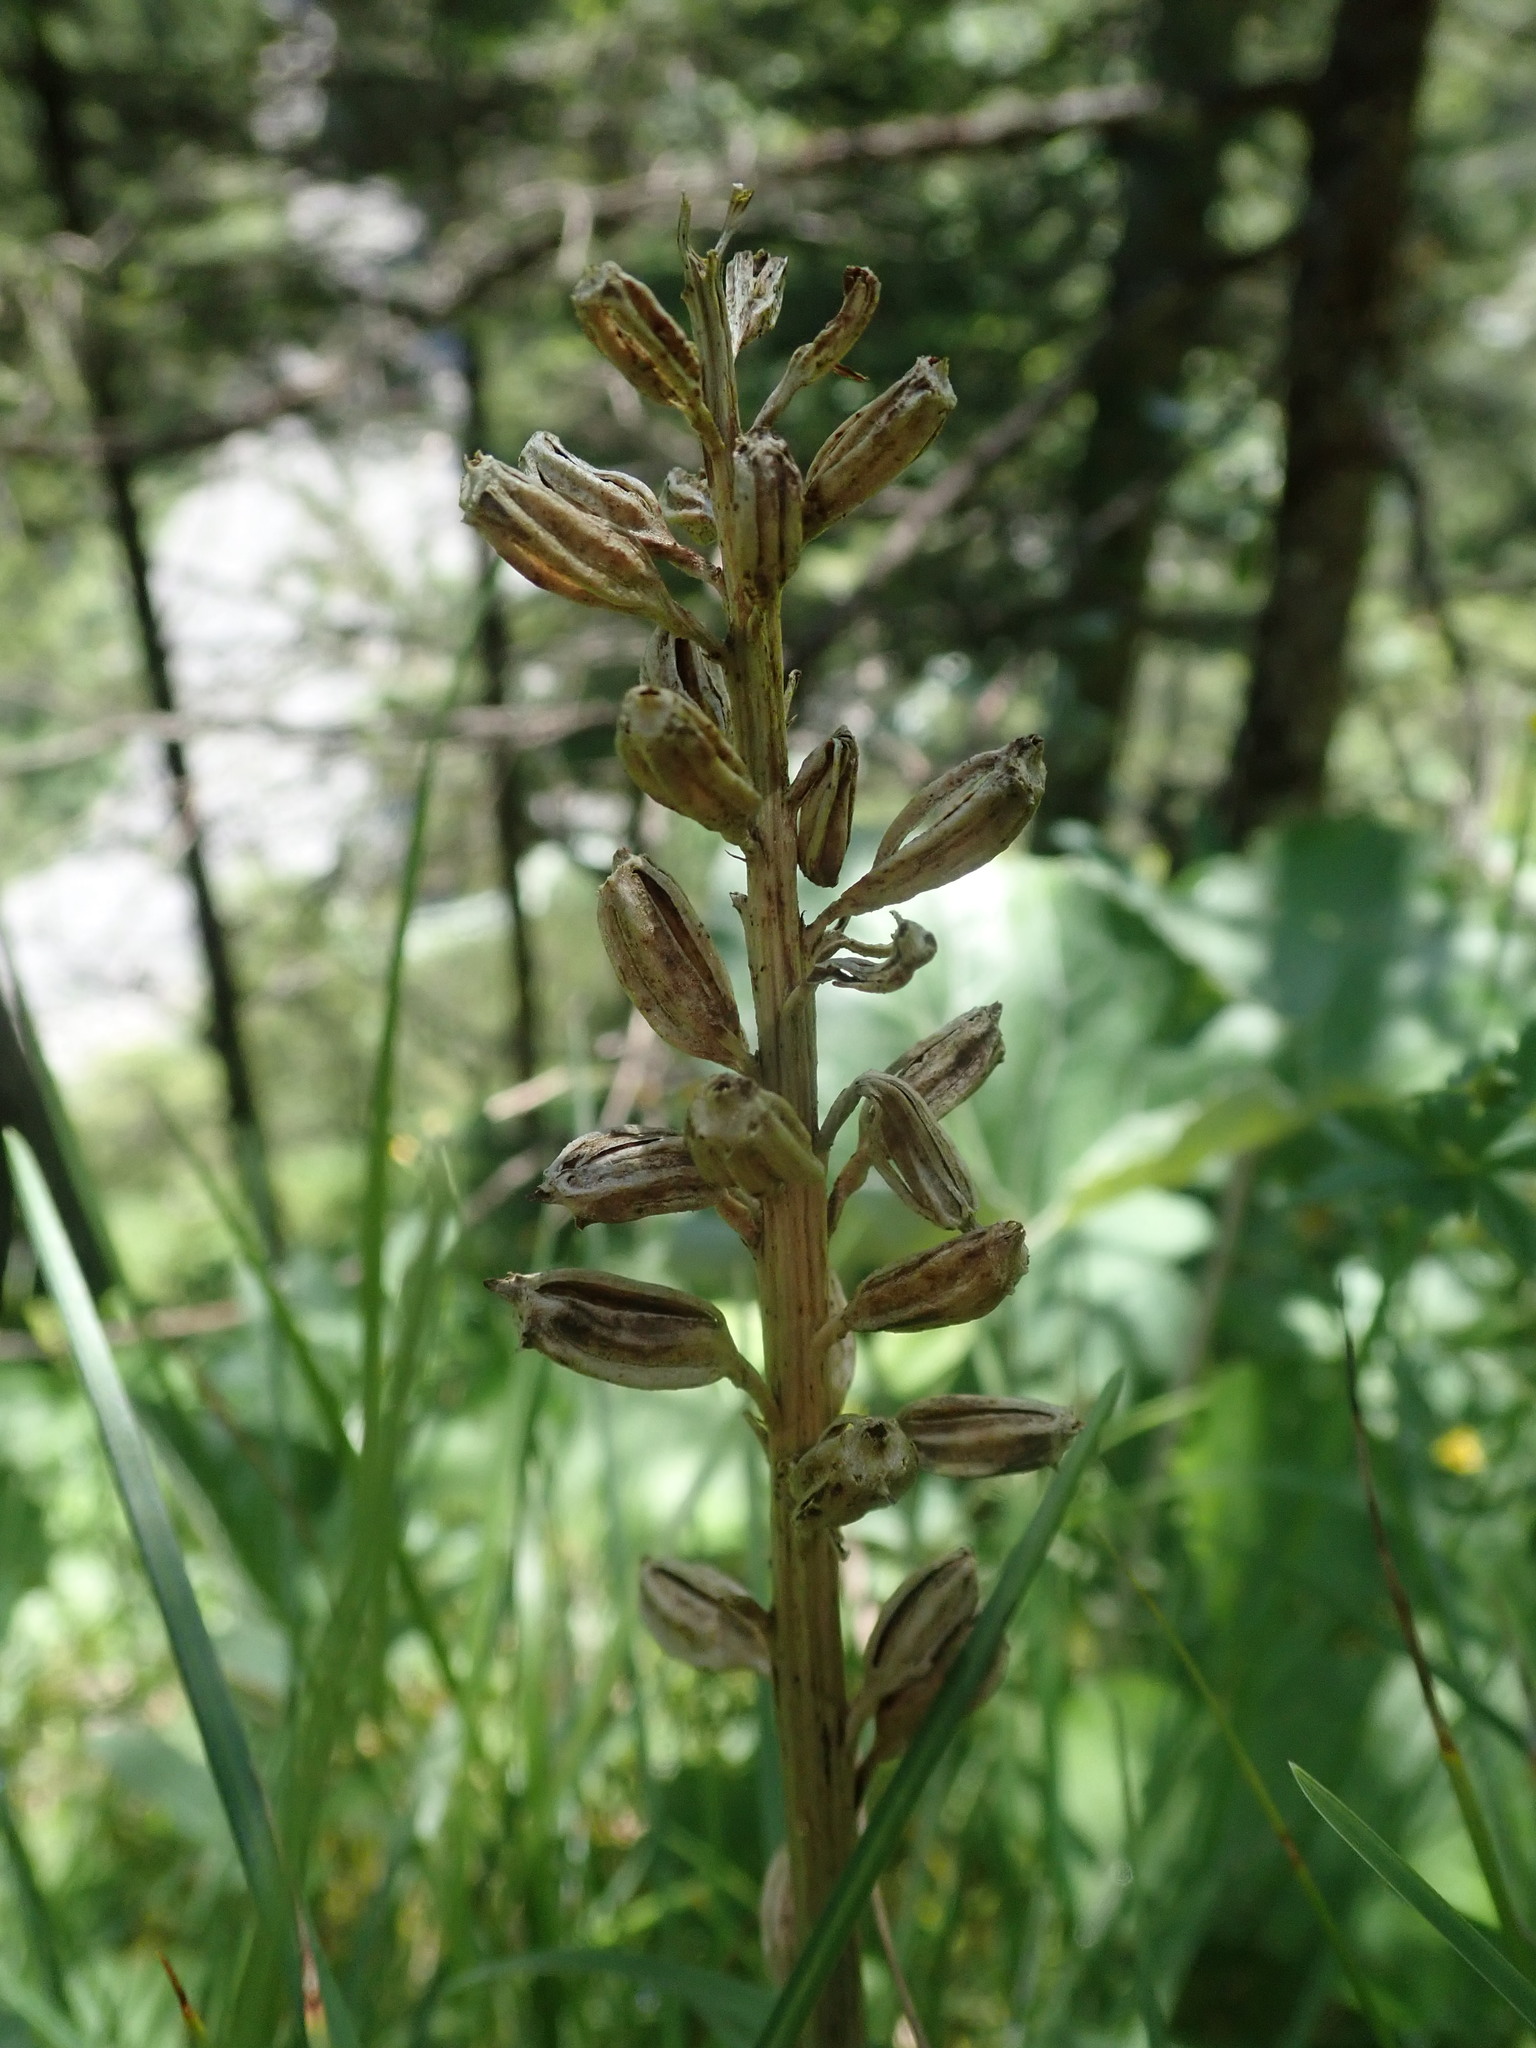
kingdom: Plantae
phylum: Tracheophyta
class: Liliopsida
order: Asparagales
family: Orchidaceae
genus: Neottia
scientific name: Neottia nidus-avis
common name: Bird's-nest orchid
